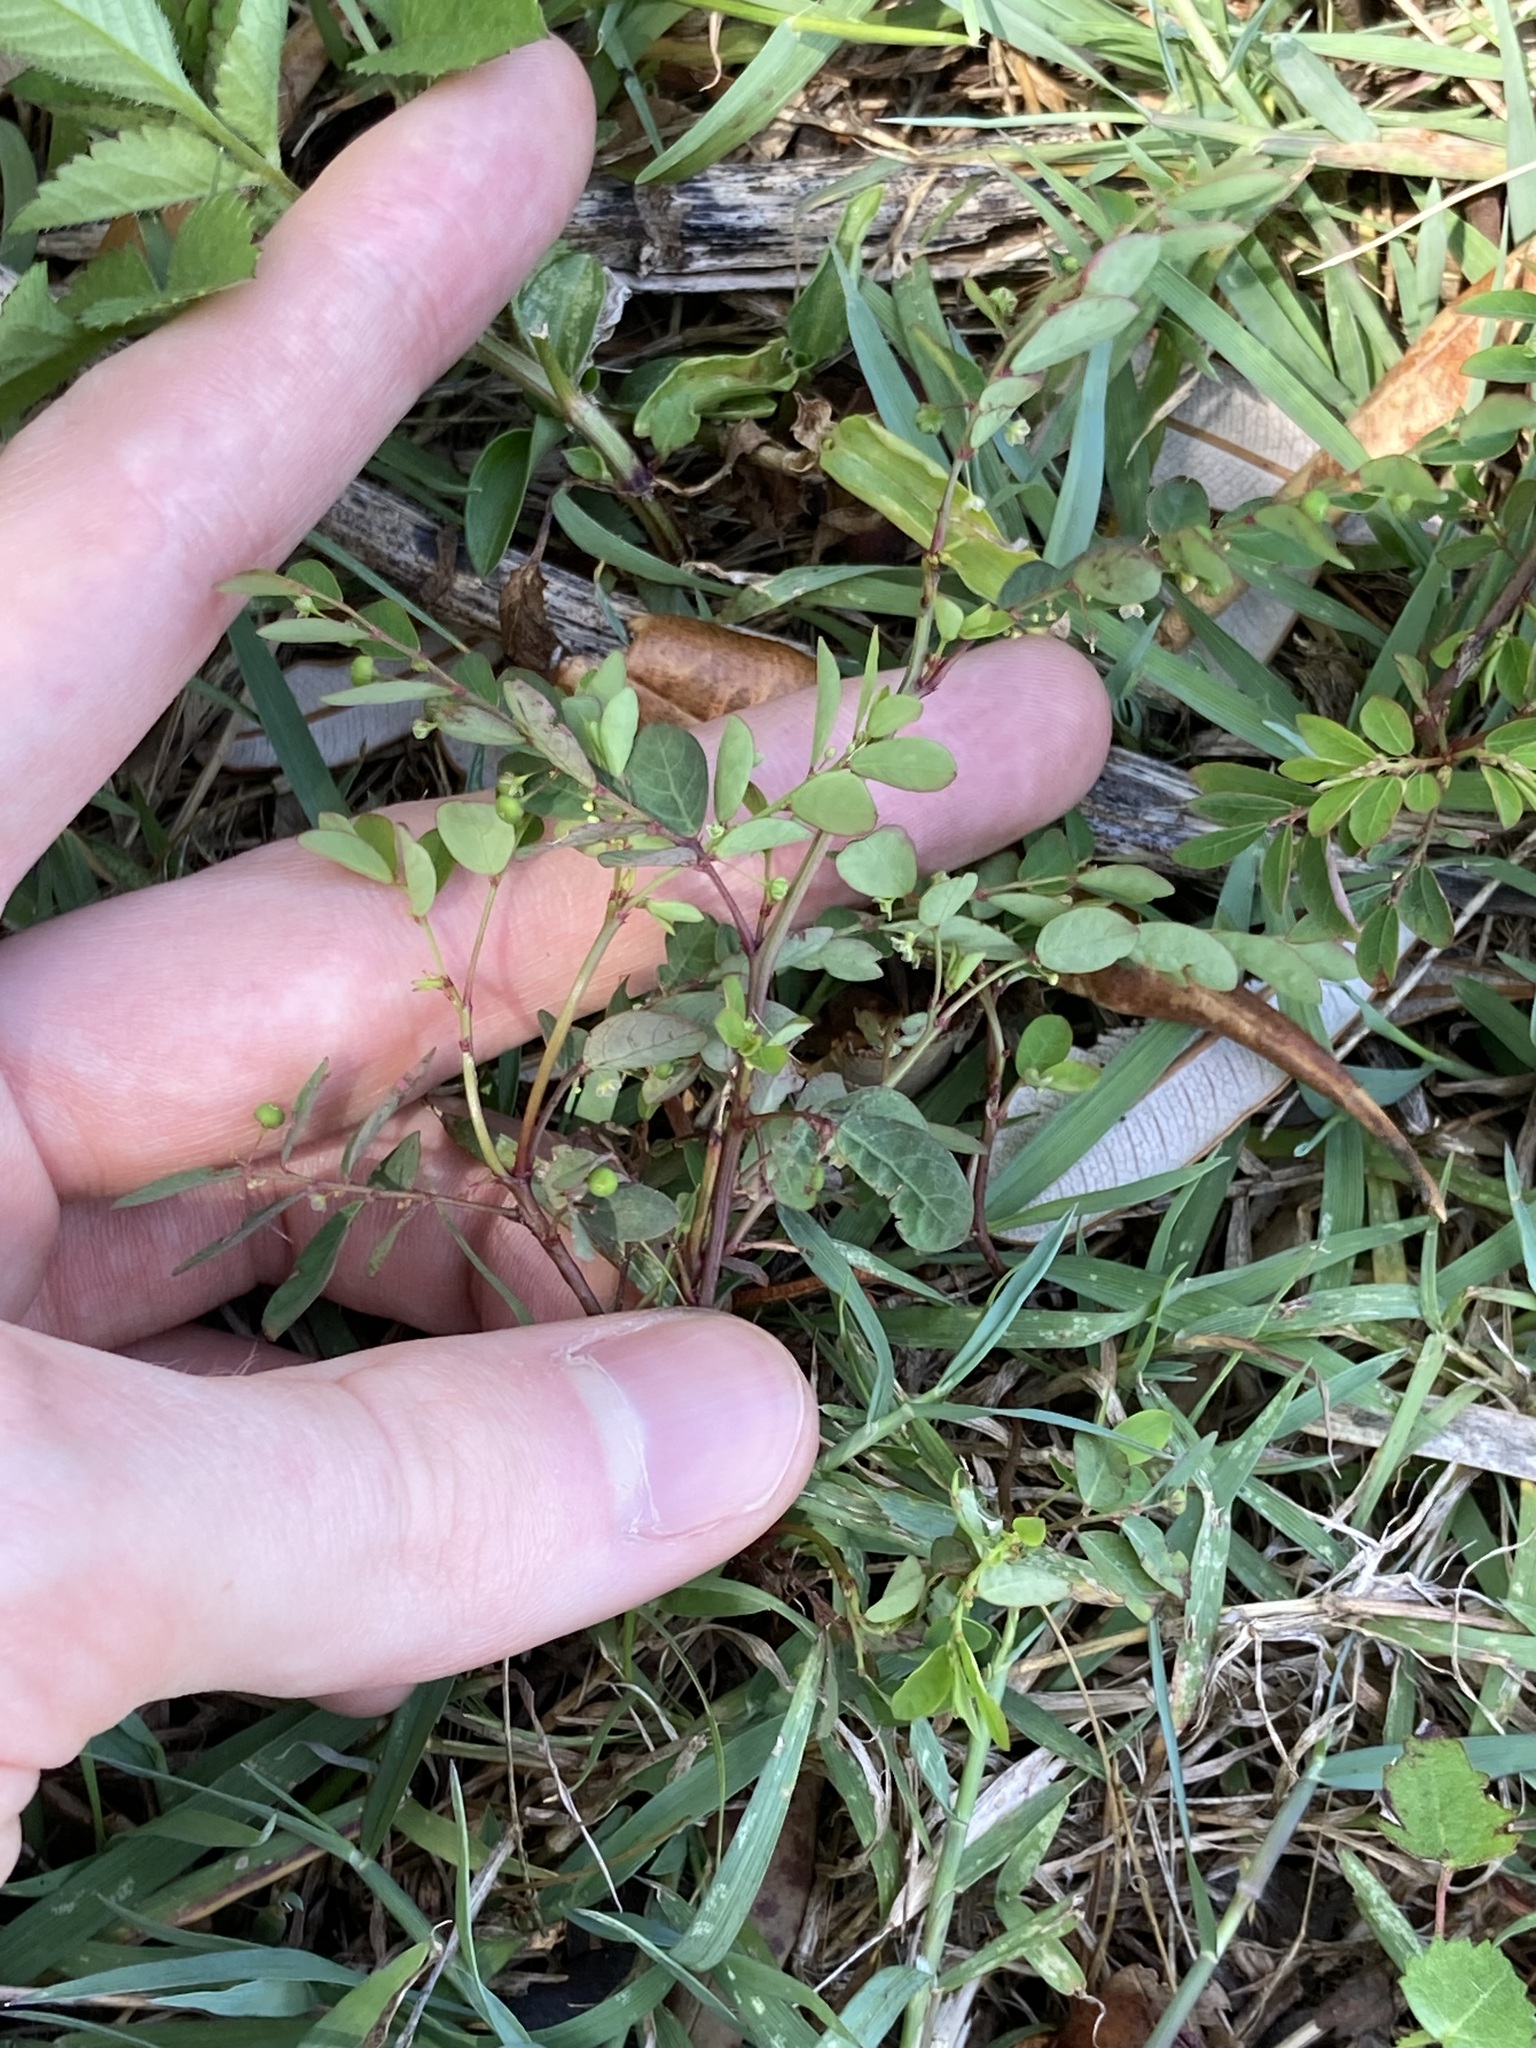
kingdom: Plantae
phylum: Tracheophyta
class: Magnoliopsida
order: Malpighiales
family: Phyllanthaceae
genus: Phyllanthus
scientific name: Phyllanthus tenellus
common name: Mascarene island leaf-flower
